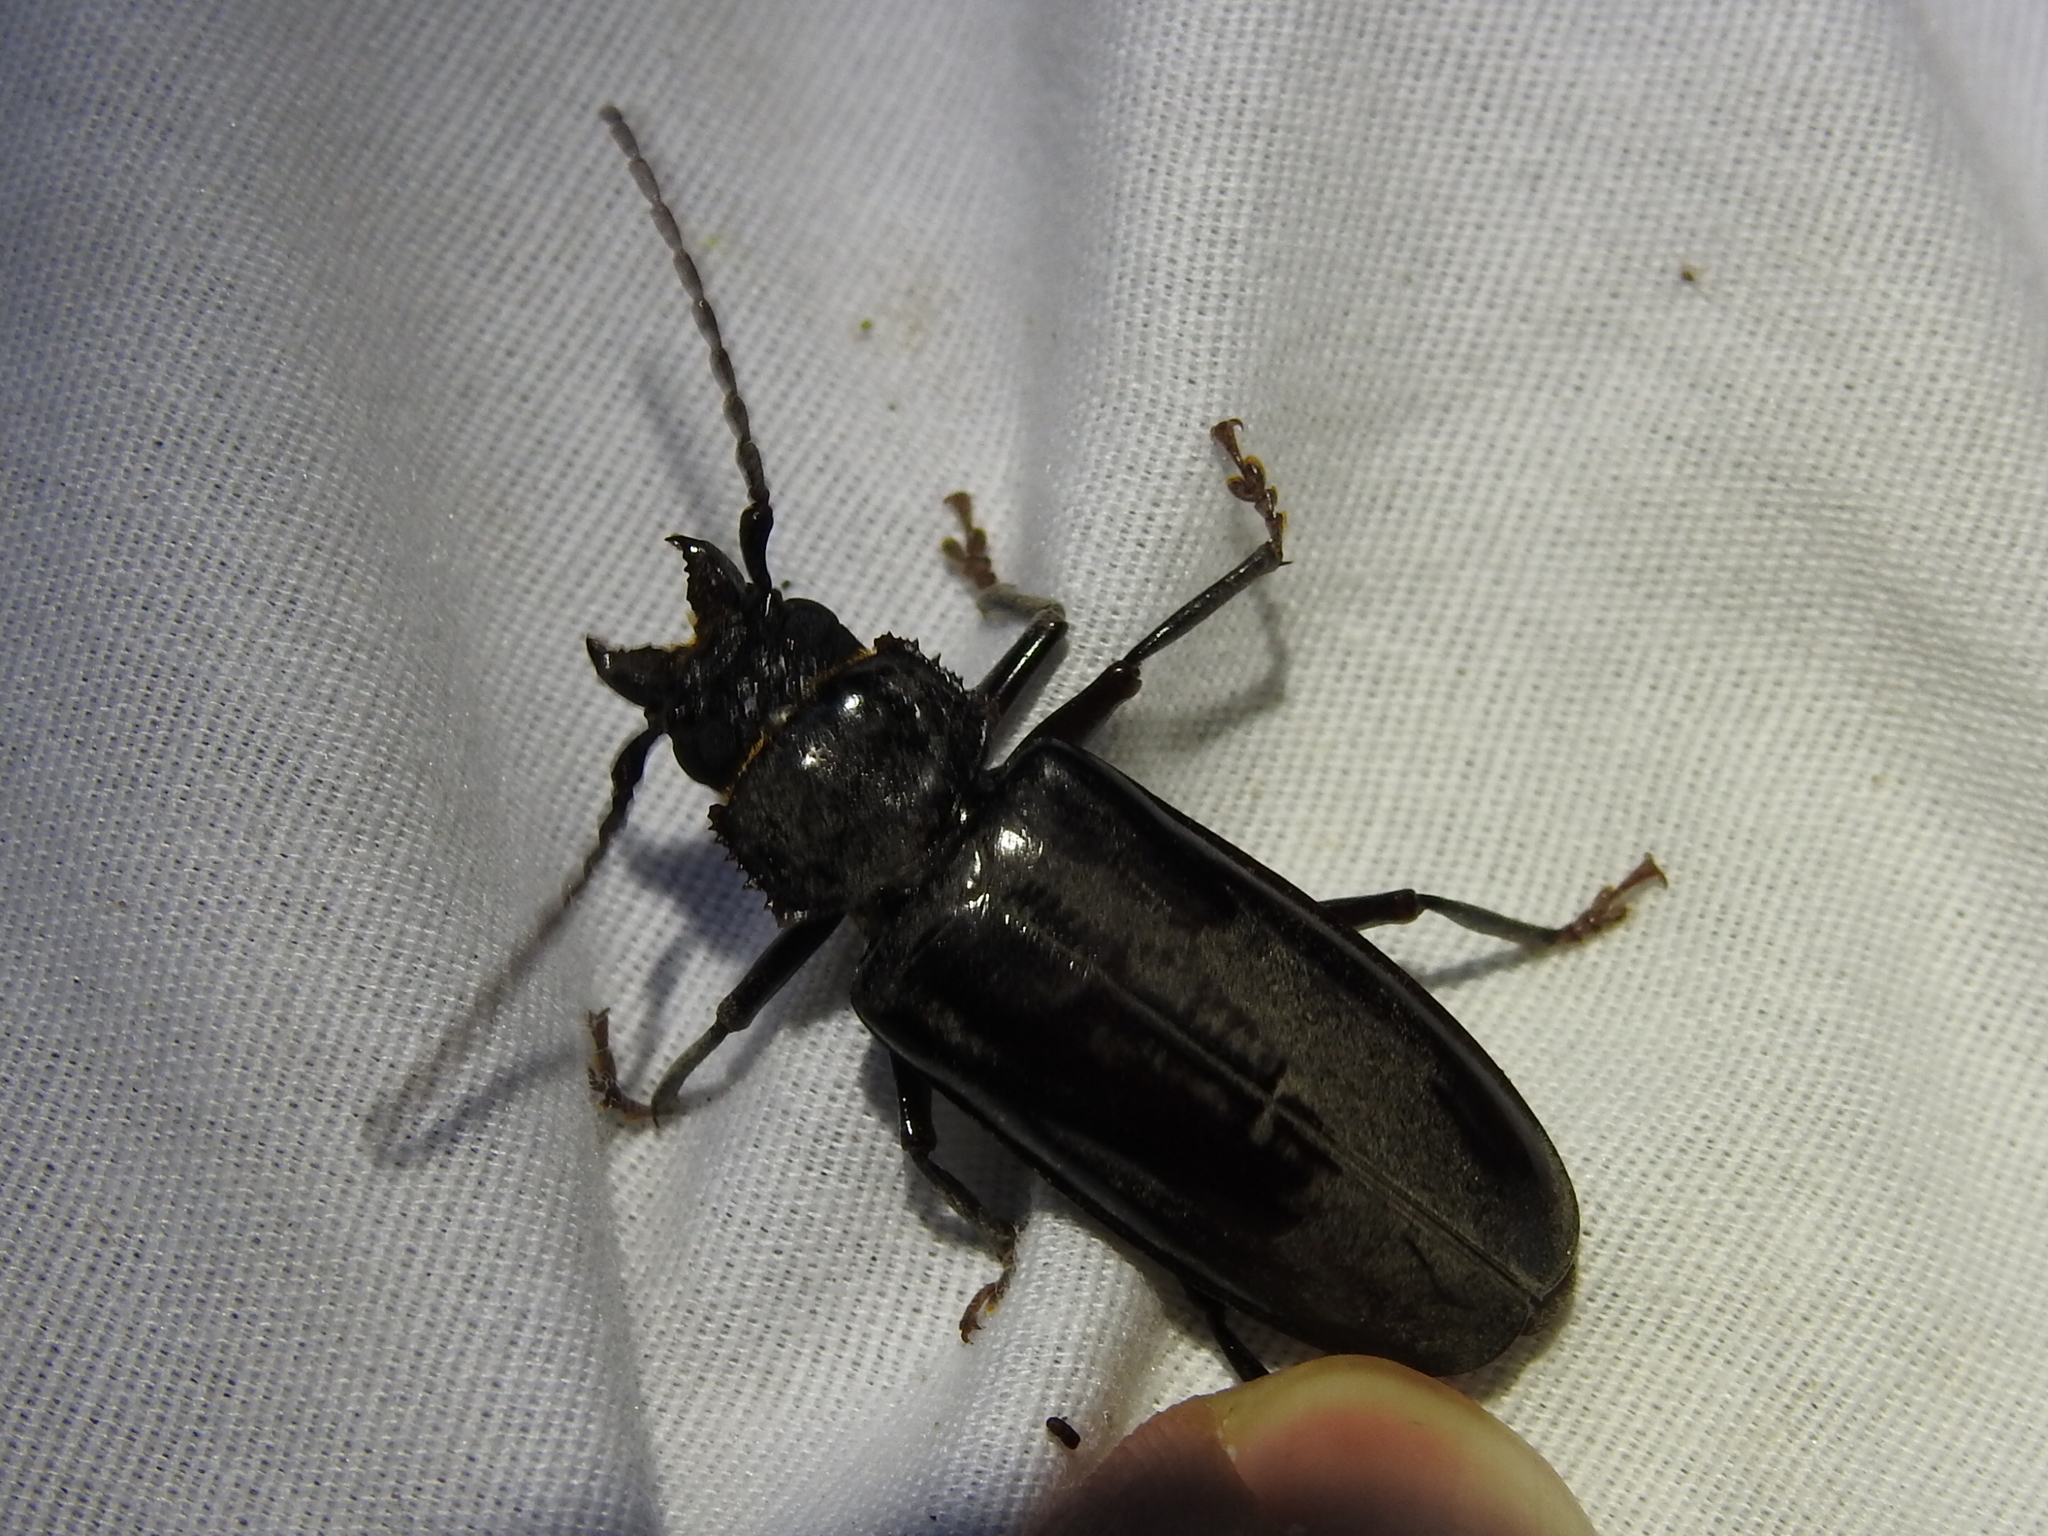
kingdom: Animalia
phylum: Arthropoda
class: Insecta
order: Coleoptera
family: Cerambycidae
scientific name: Cerambycidae
